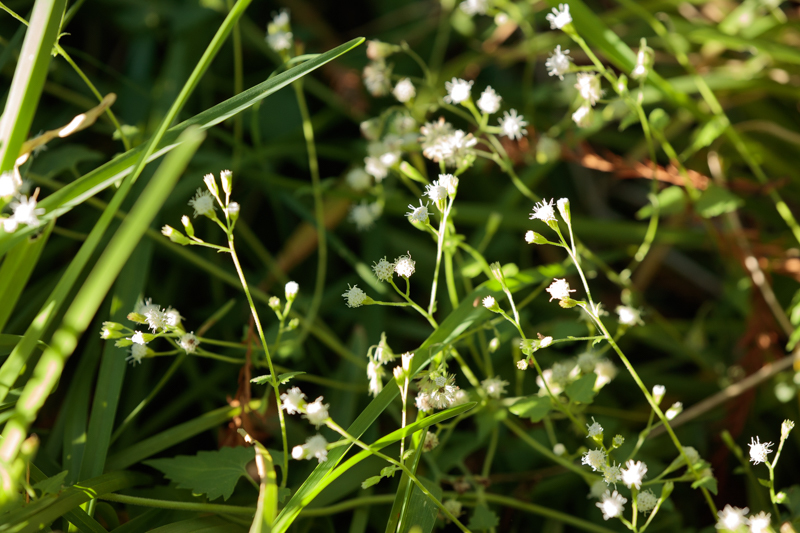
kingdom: Plantae
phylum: Tracheophyta
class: Magnoliopsida
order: Asterales
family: Asteraceae
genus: Parthenium
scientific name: Parthenium hysterophorus
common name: Santa maria feverfew
